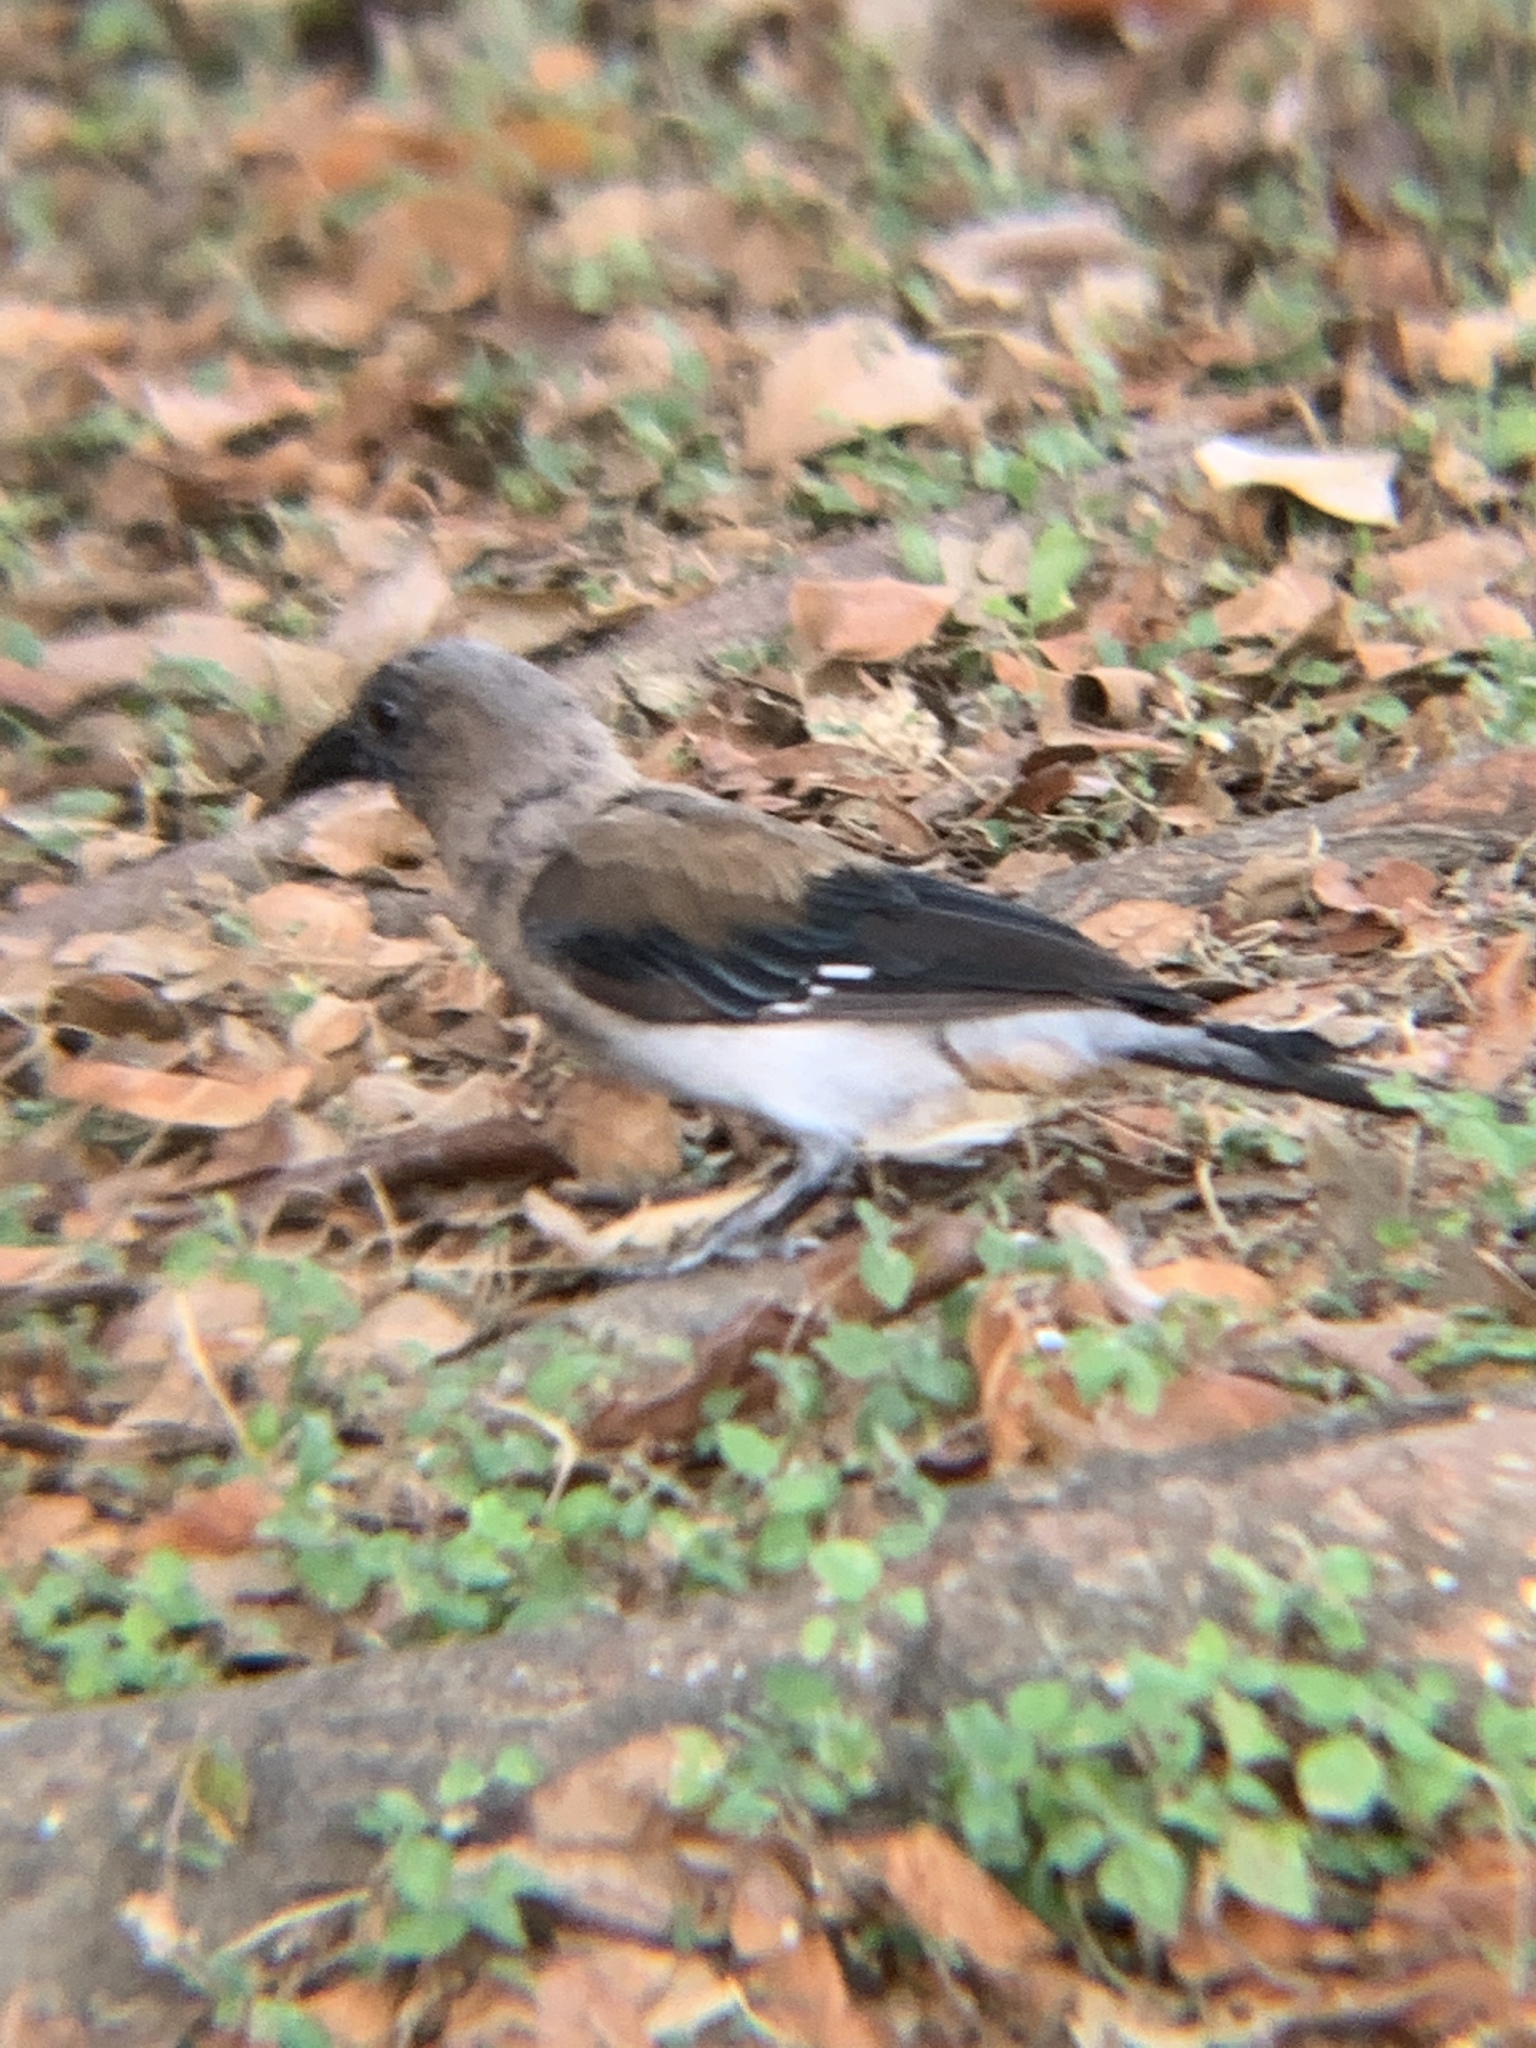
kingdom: Animalia
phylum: Chordata
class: Aves
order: Passeriformes
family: Corvidae
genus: Dendrocitta
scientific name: Dendrocitta formosae
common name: Grey treepie
